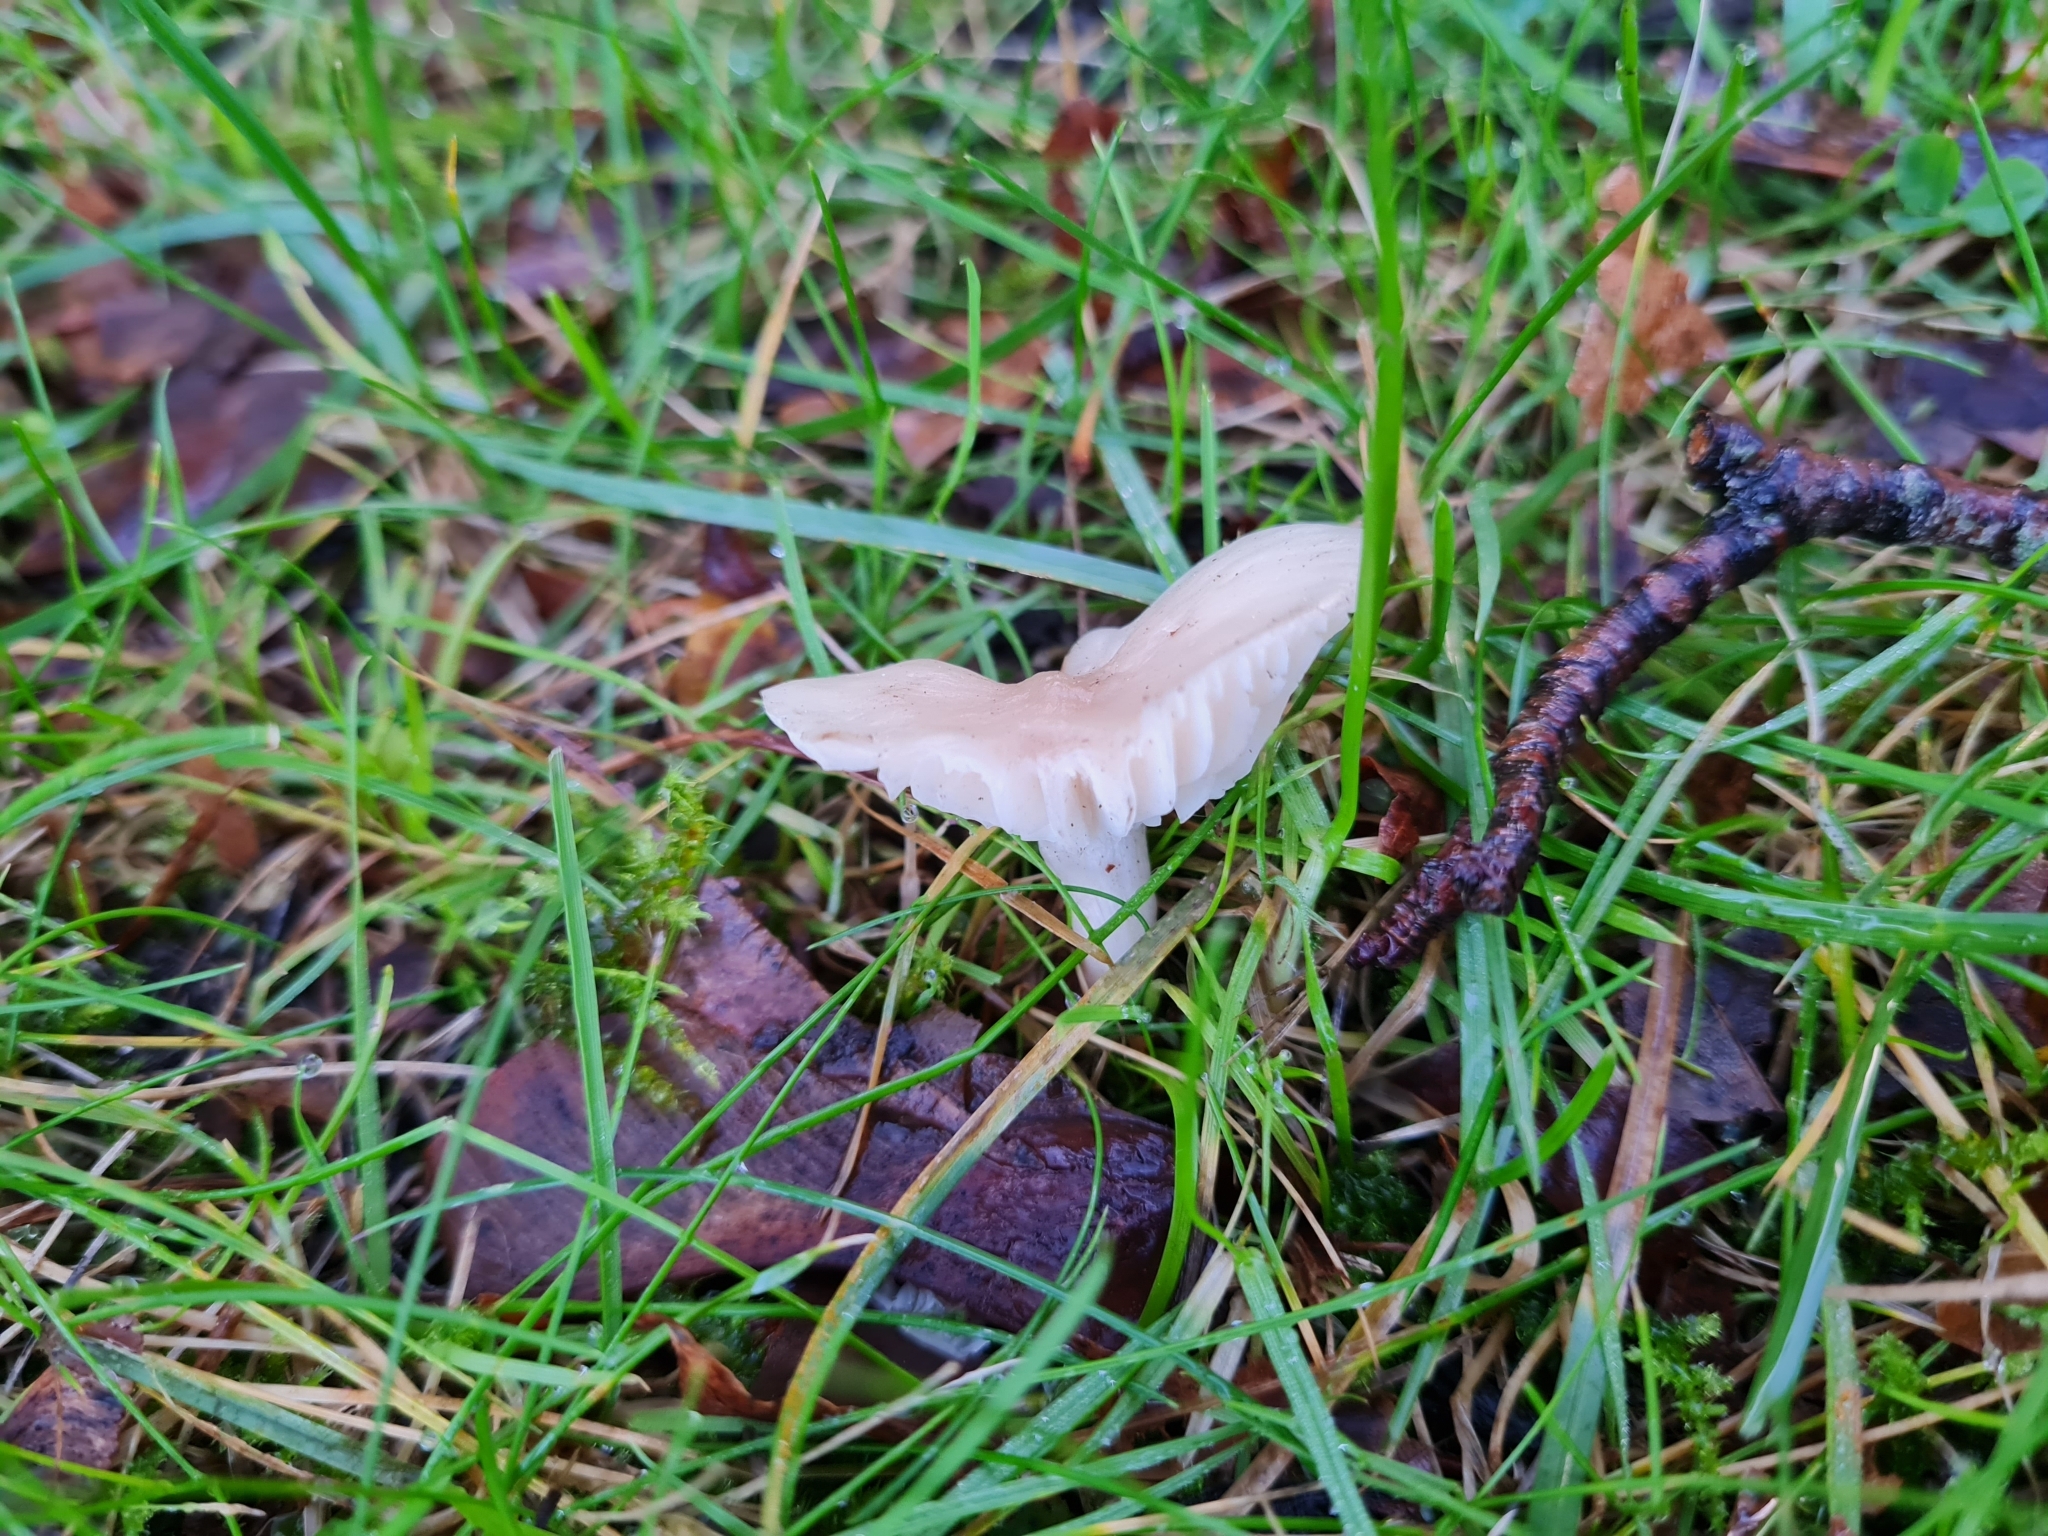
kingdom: Fungi
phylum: Basidiomycota
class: Agaricomycetes
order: Agaricales
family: Hygrophoraceae
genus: Cuphophyllus
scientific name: Cuphophyllus virgineus
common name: Snowy waxcap
